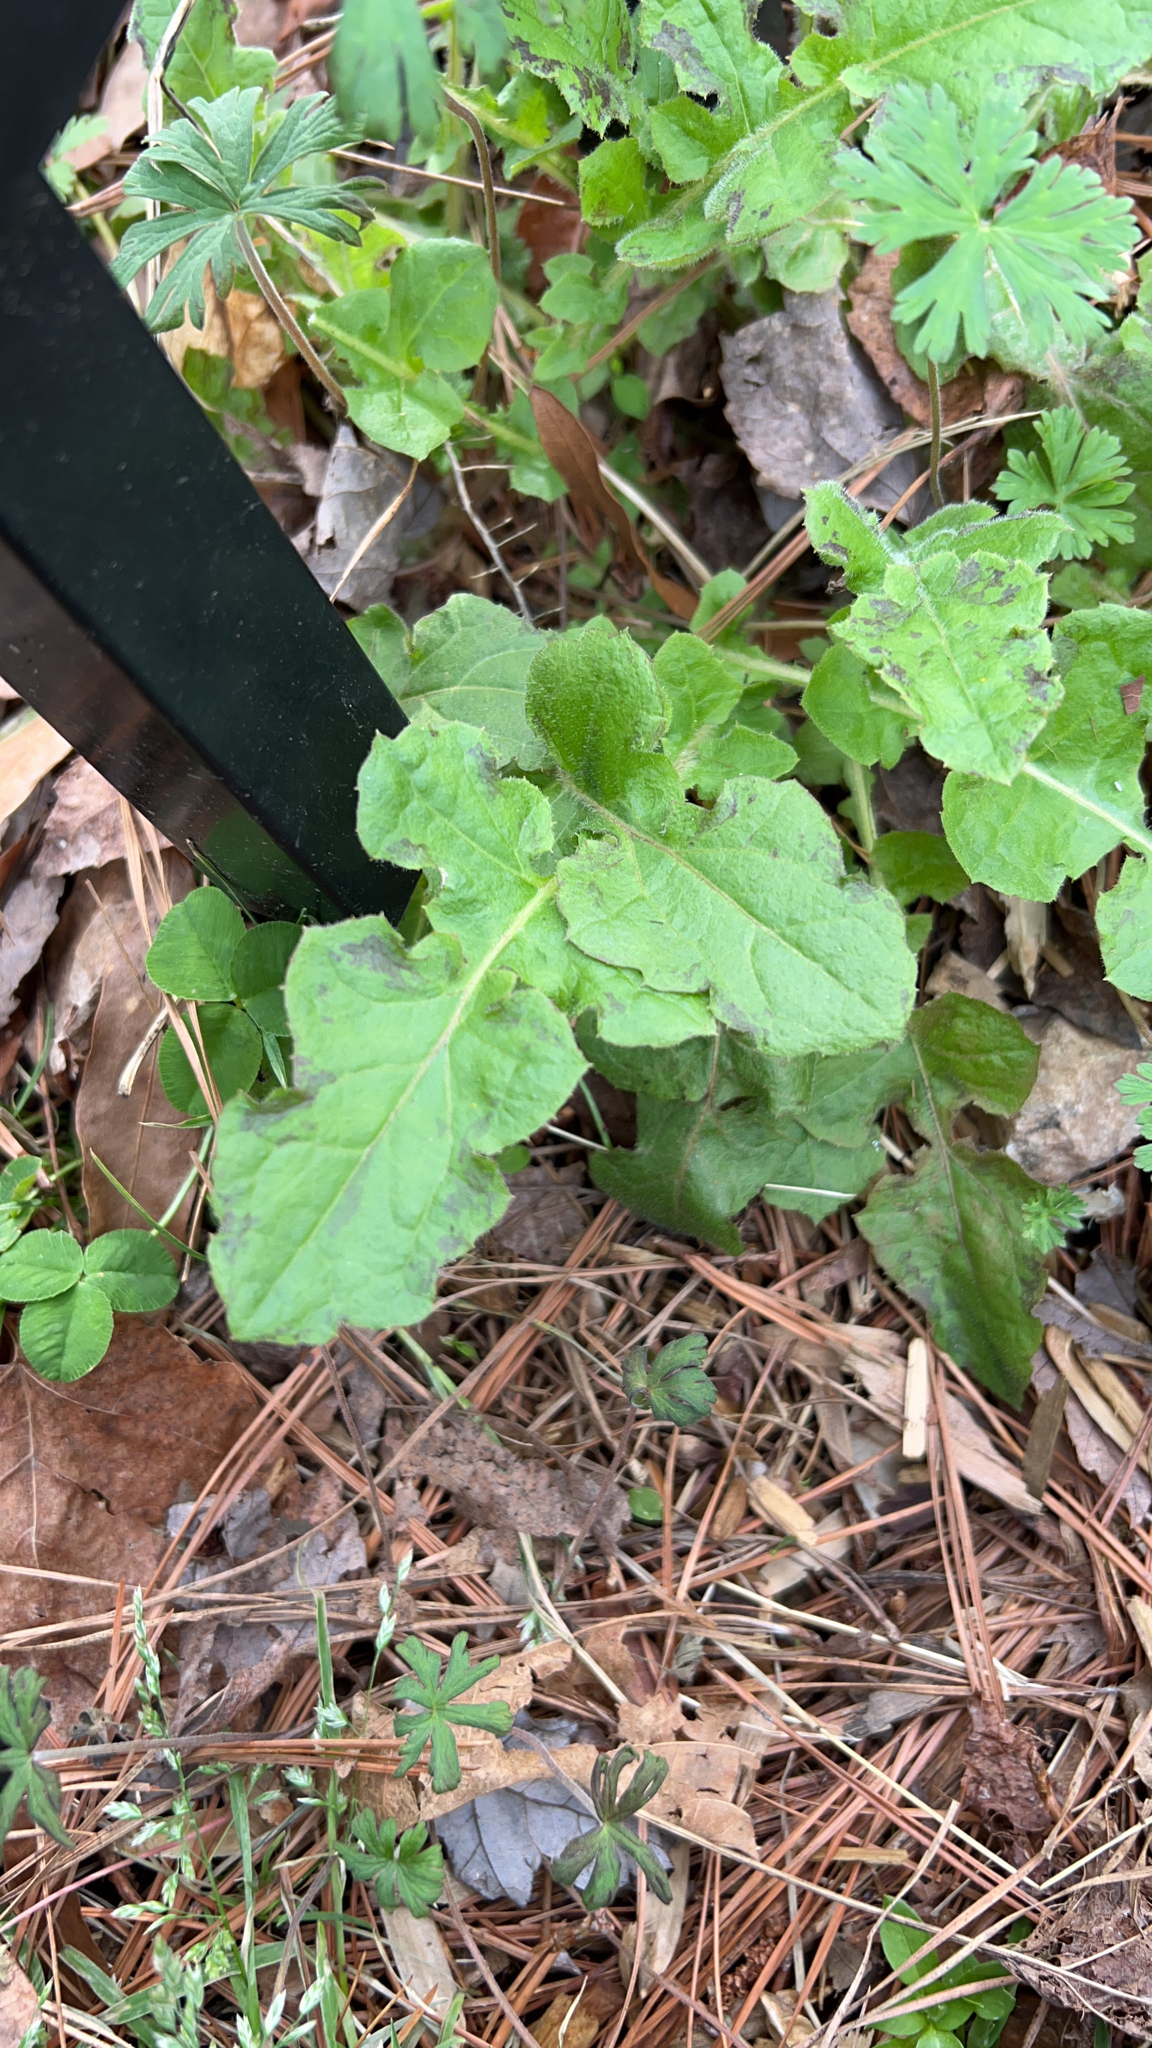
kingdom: Plantae
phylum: Tracheophyta
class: Magnoliopsida
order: Asterales
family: Asteraceae
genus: Youngia
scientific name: Youngia japonica
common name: Oriental false hawksbeard
